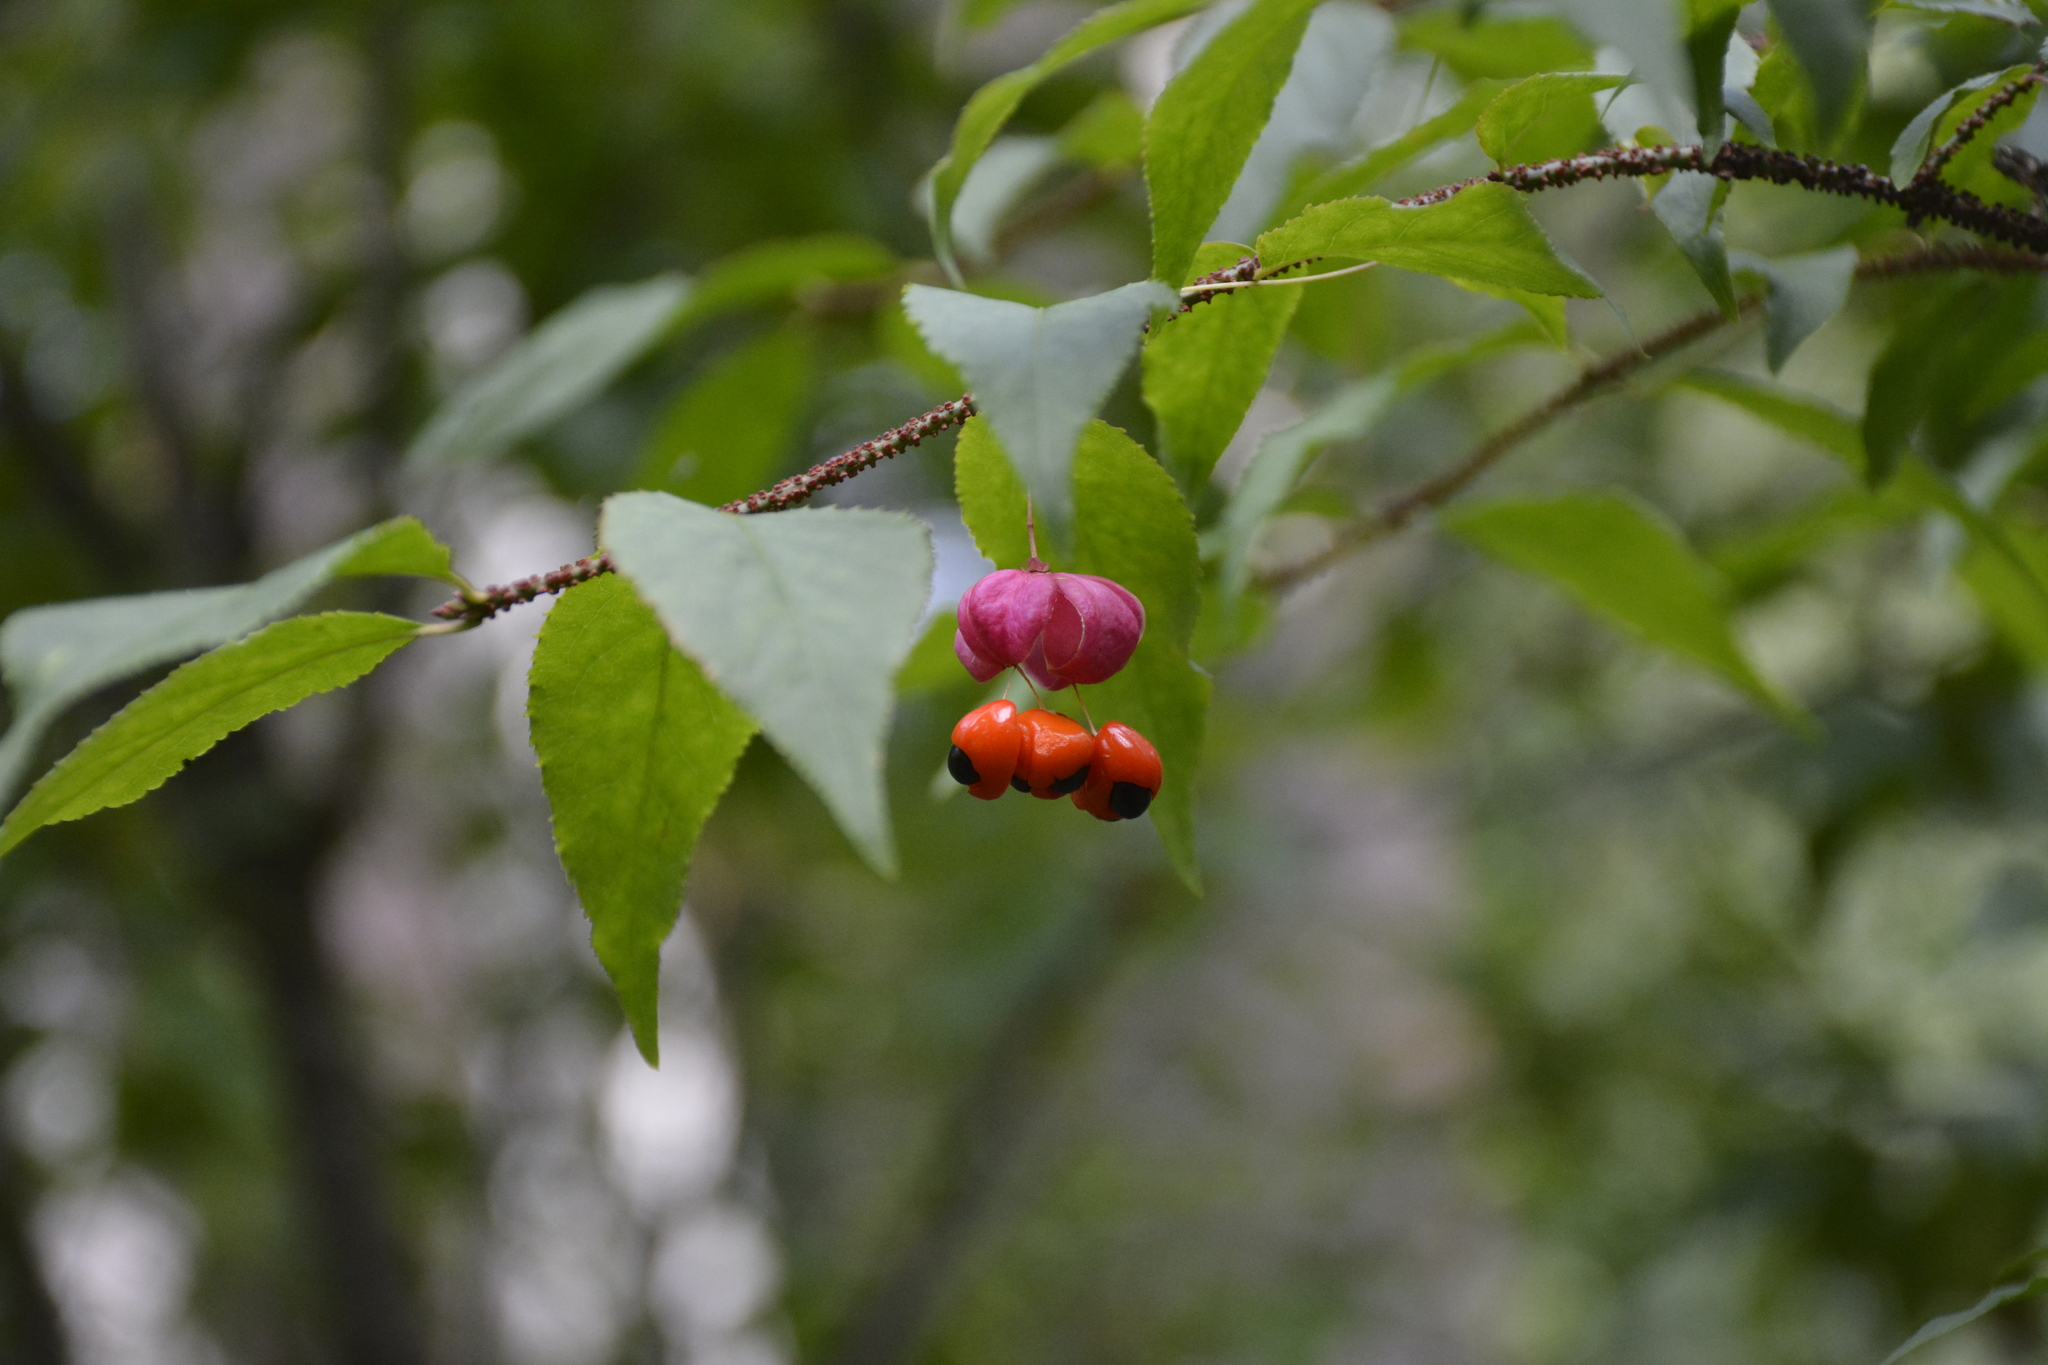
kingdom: Plantae
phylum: Tracheophyta
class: Magnoliopsida
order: Celastrales
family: Celastraceae
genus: Euonymus
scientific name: Euonymus verrucosus
